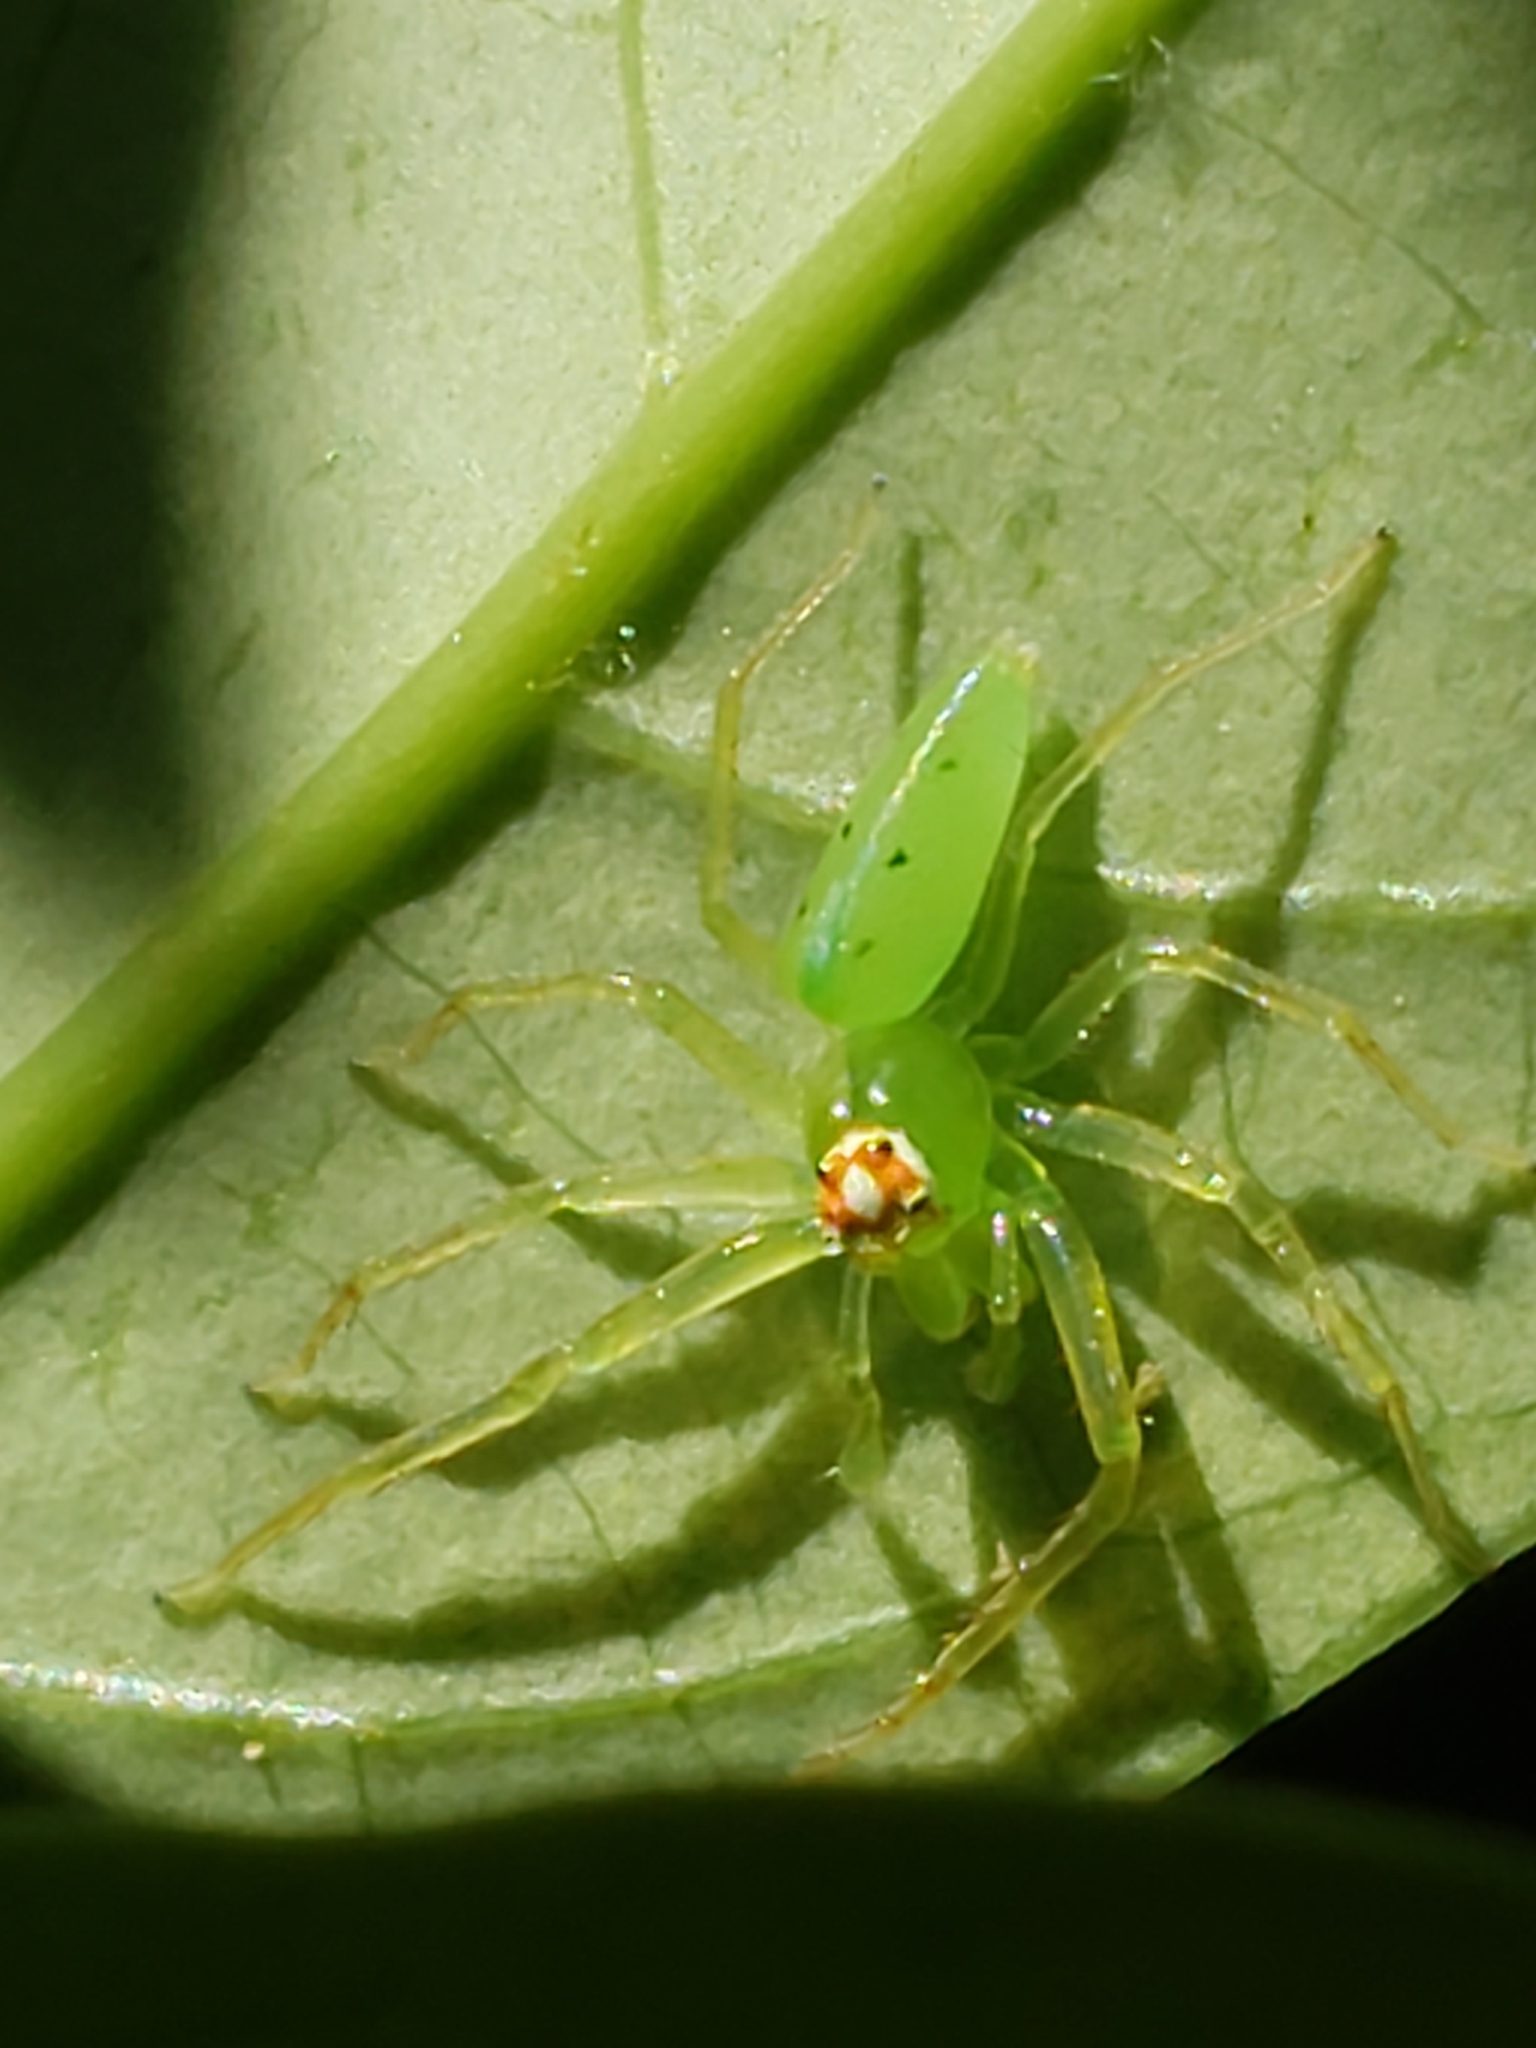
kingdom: Animalia
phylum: Arthropoda
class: Arachnida
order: Araneae
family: Salticidae
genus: Lyssomanes
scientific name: Lyssomanes viridis
